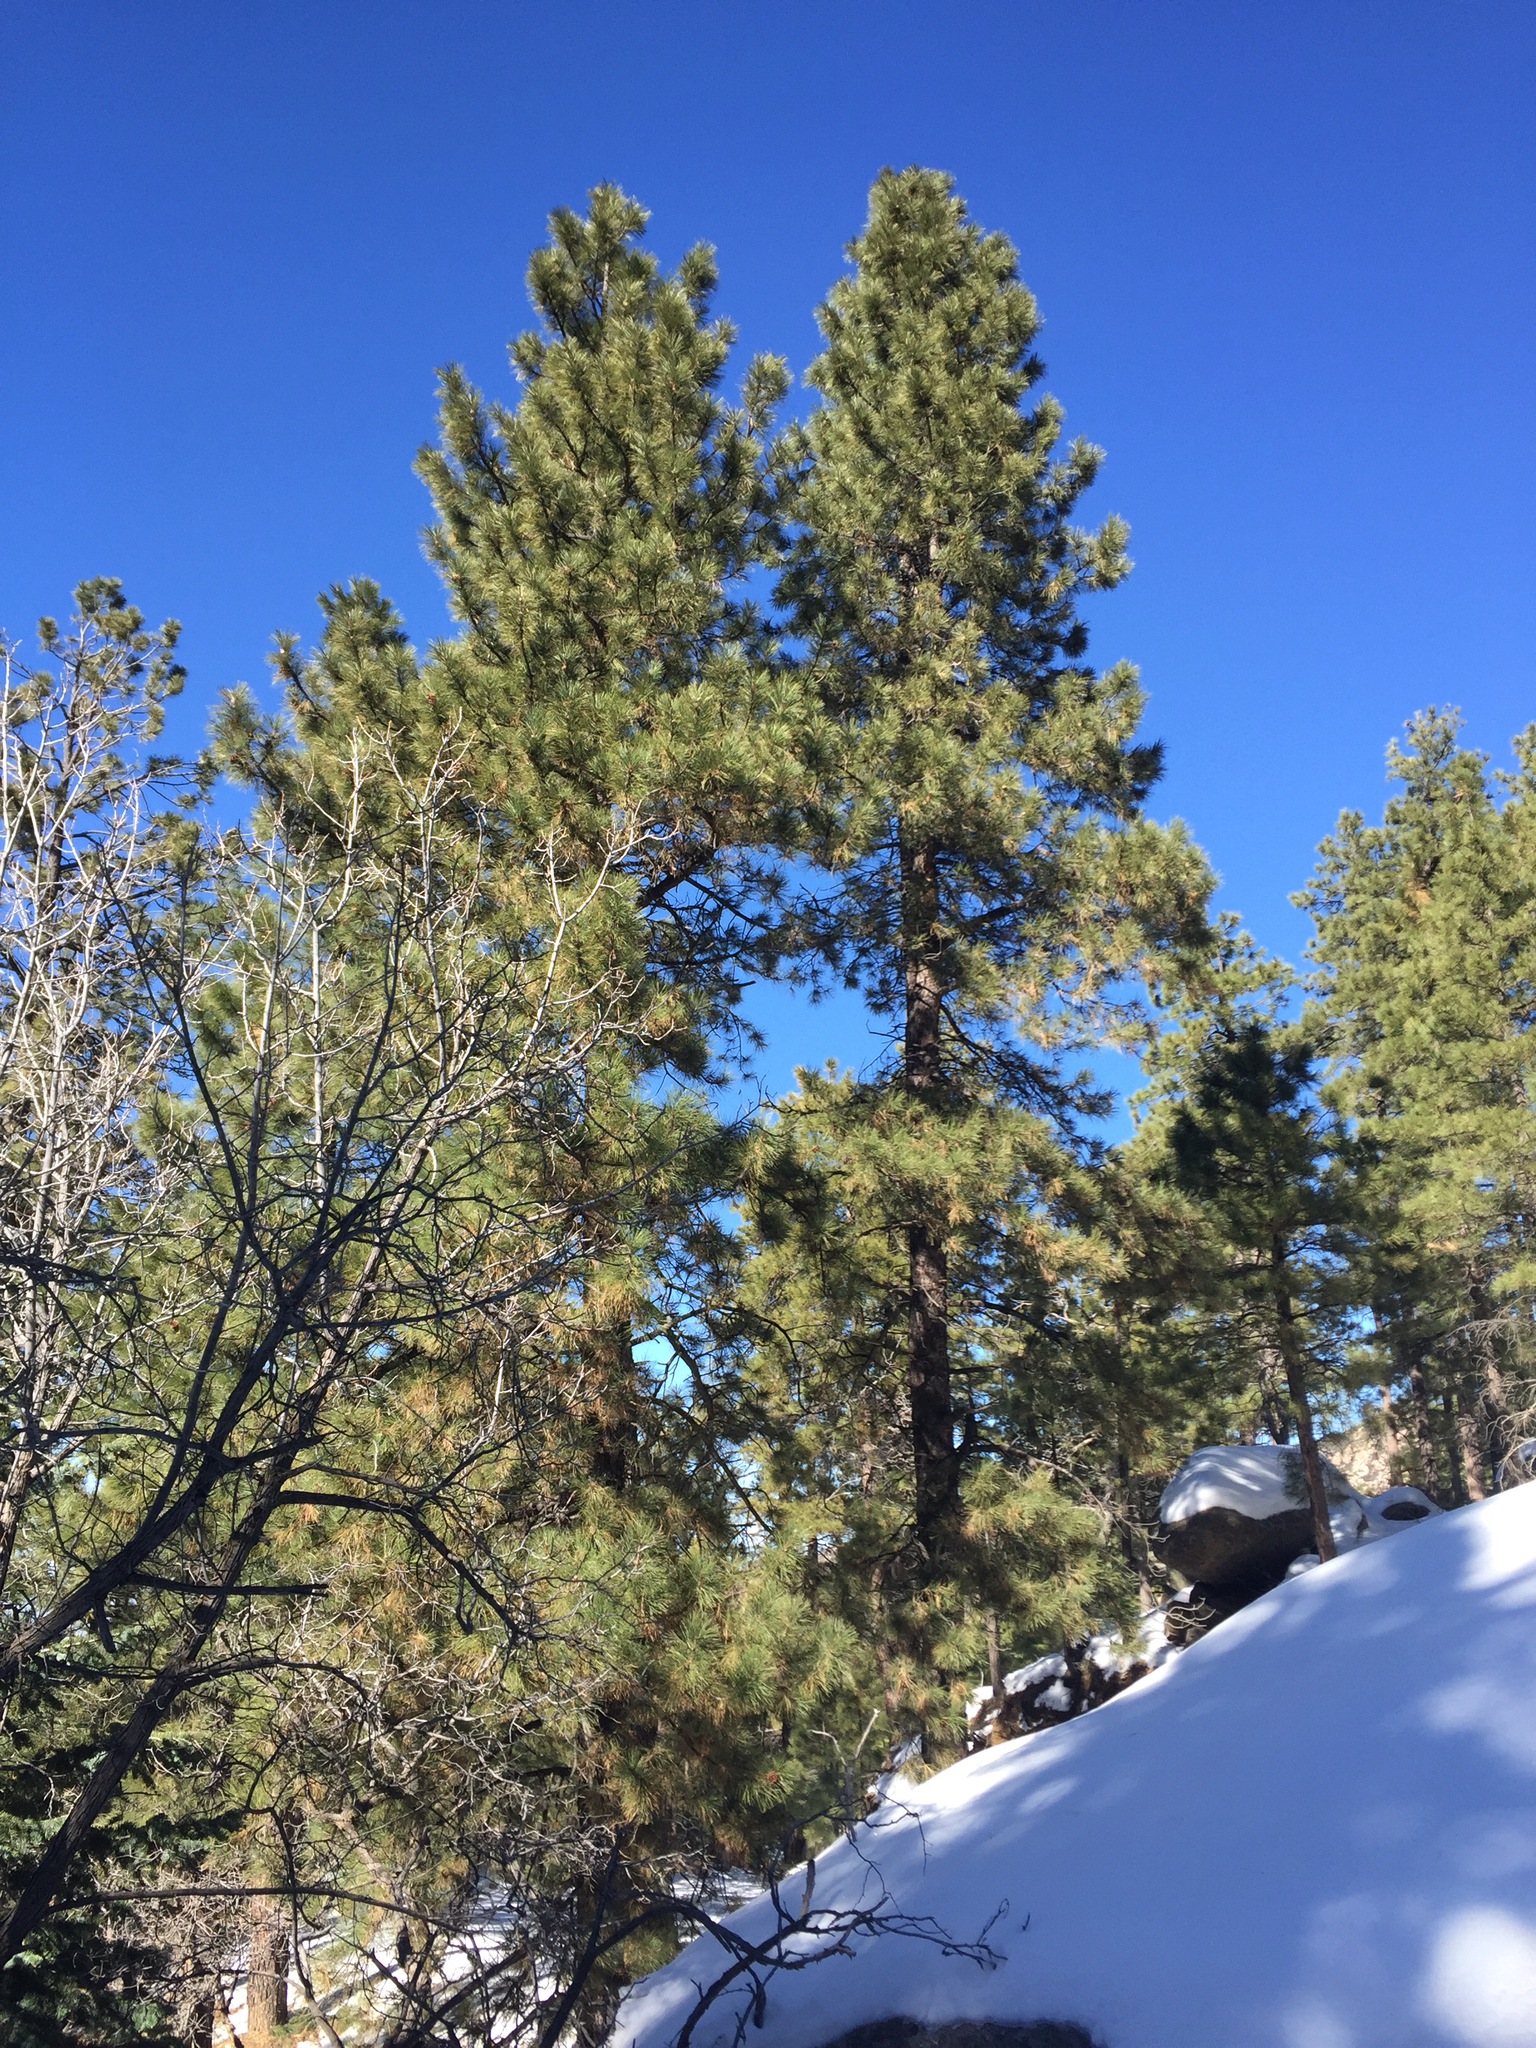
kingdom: Plantae
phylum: Tracheophyta
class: Pinopsida
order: Pinales
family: Pinaceae
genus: Pinus
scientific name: Pinus ponderosa
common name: Western yellow-pine
